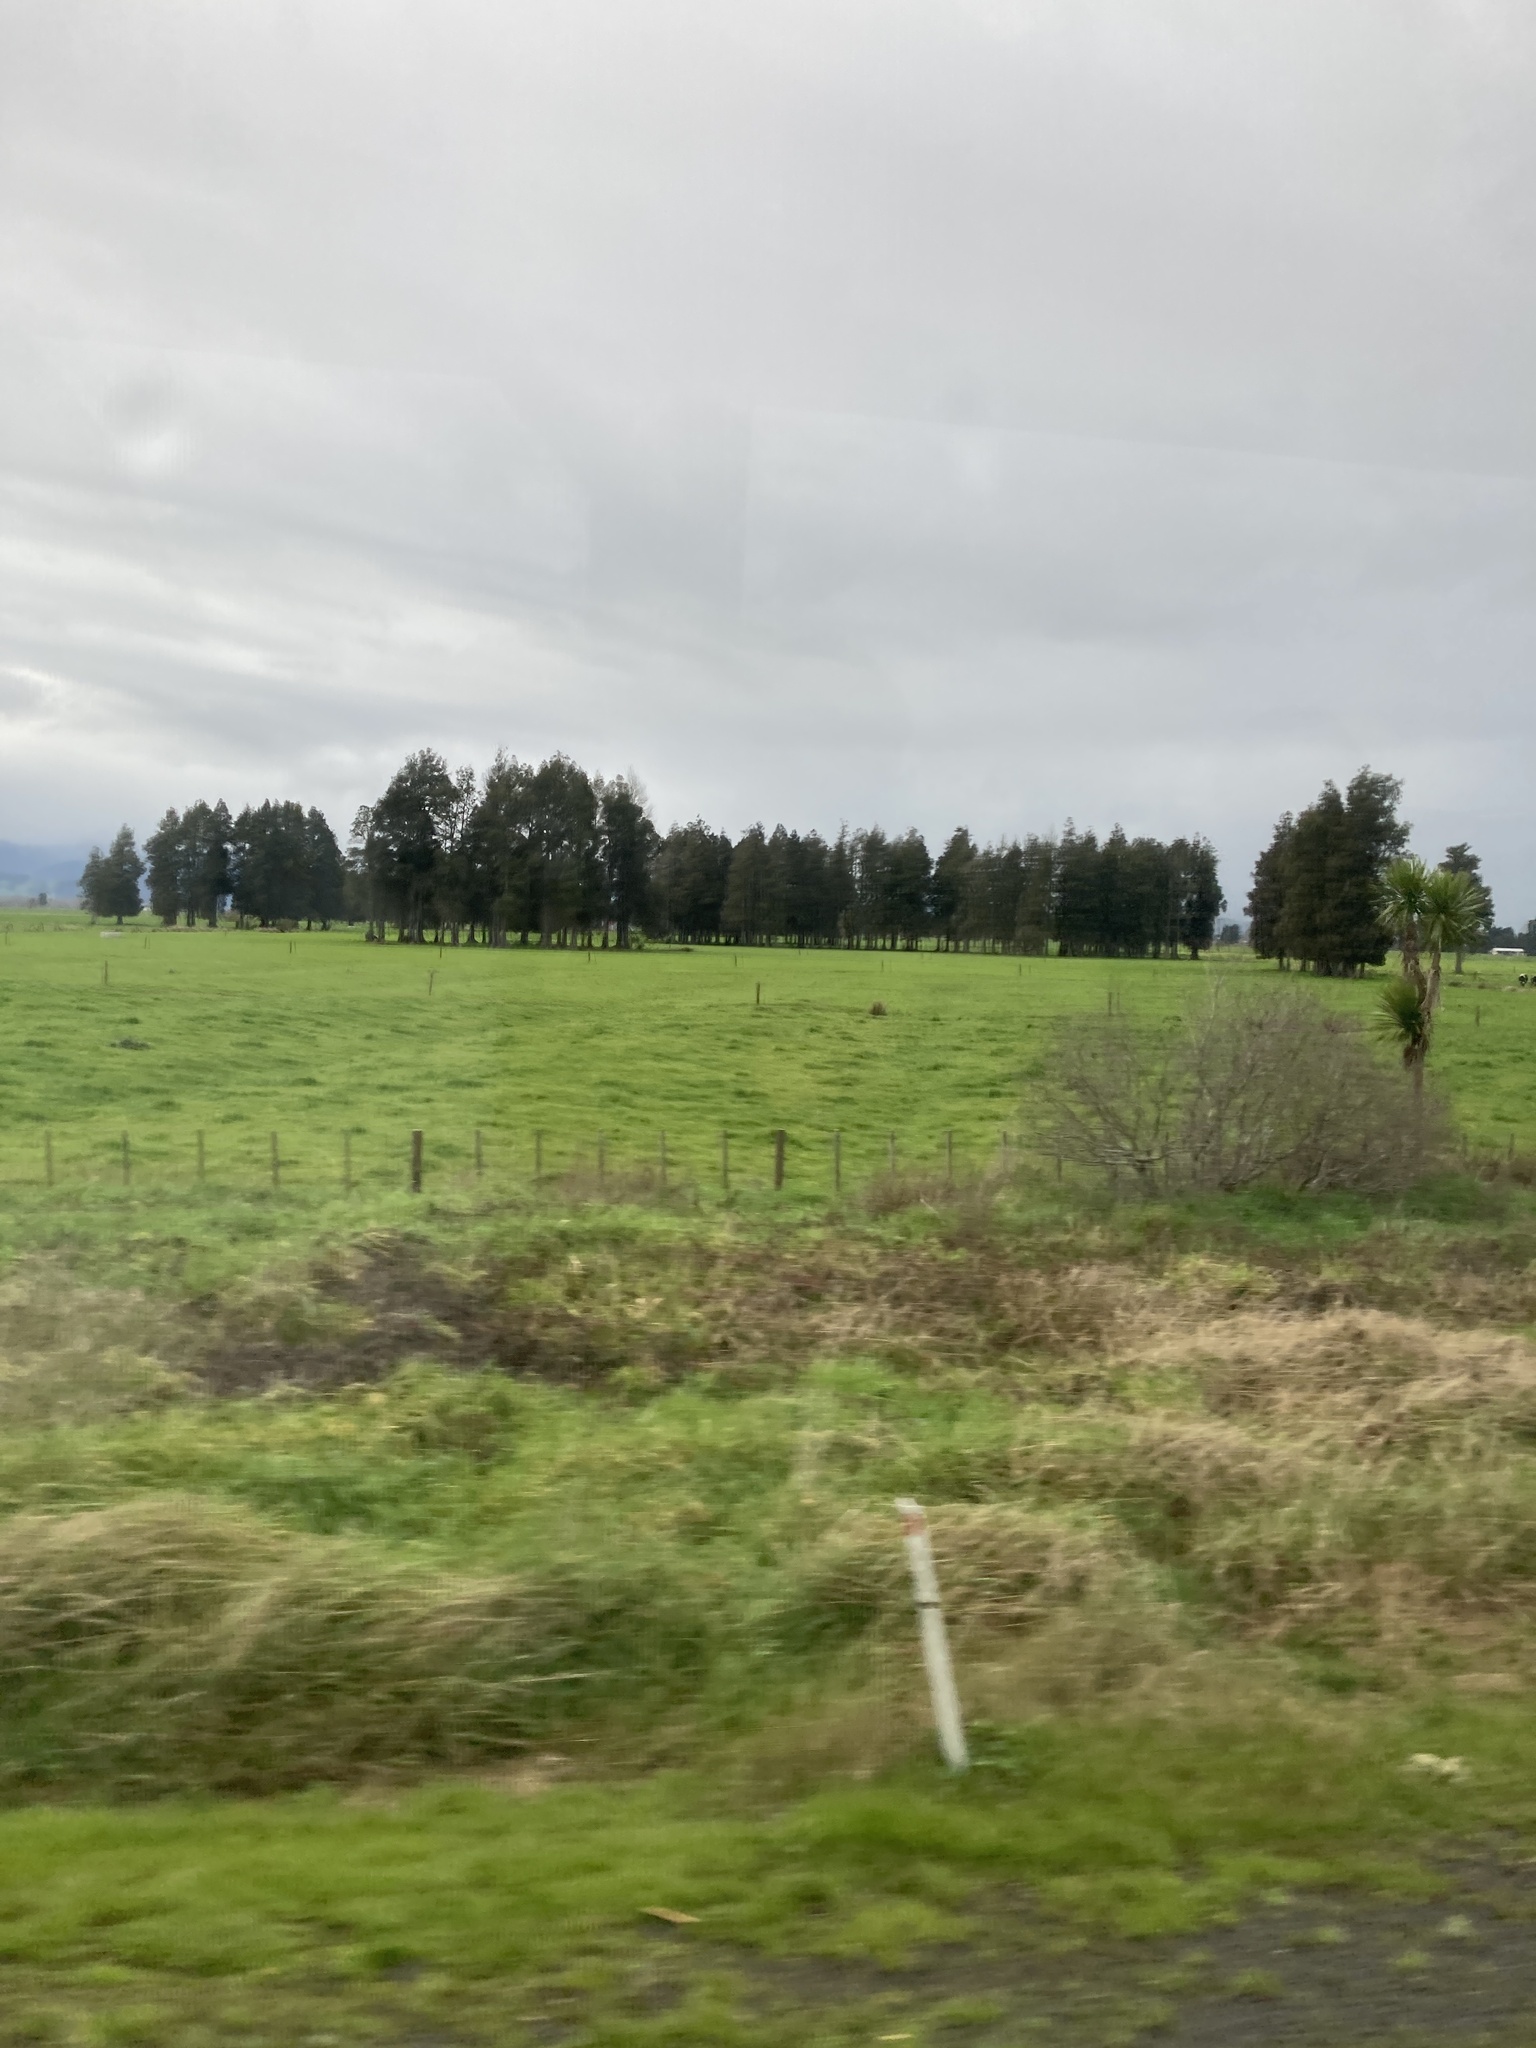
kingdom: Plantae
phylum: Tracheophyta
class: Pinopsida
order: Pinales
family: Podocarpaceae
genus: Dacrycarpus
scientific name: Dacrycarpus dacrydioides
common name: White pine
